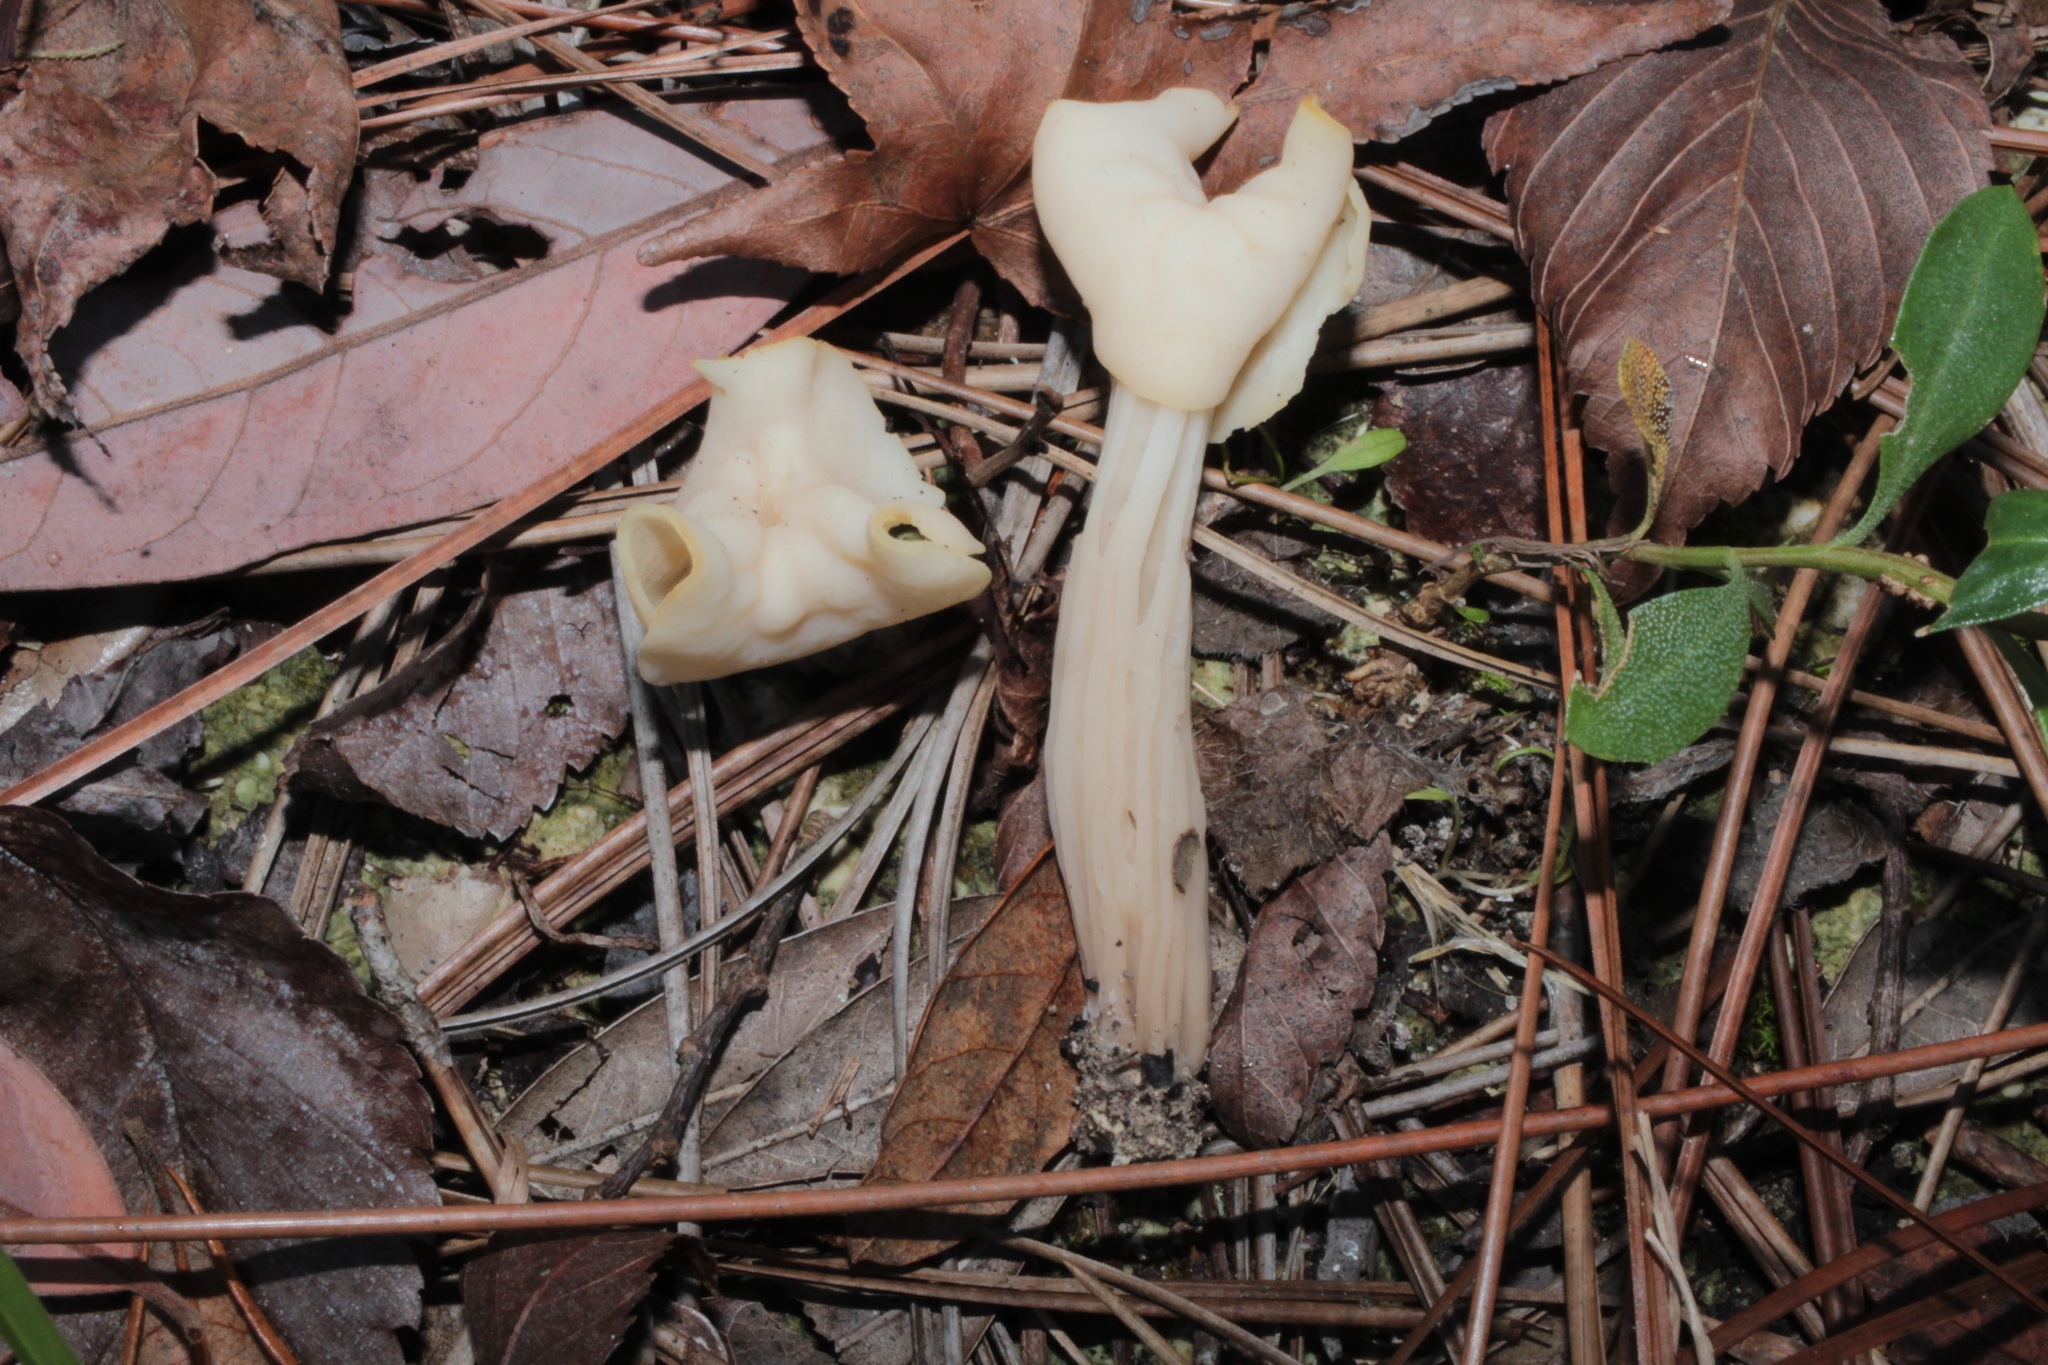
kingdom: Fungi
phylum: Ascomycota
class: Pezizomycetes
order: Pezizales
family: Helvellaceae
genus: Helvella
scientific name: Helvella crispa
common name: White saddle
